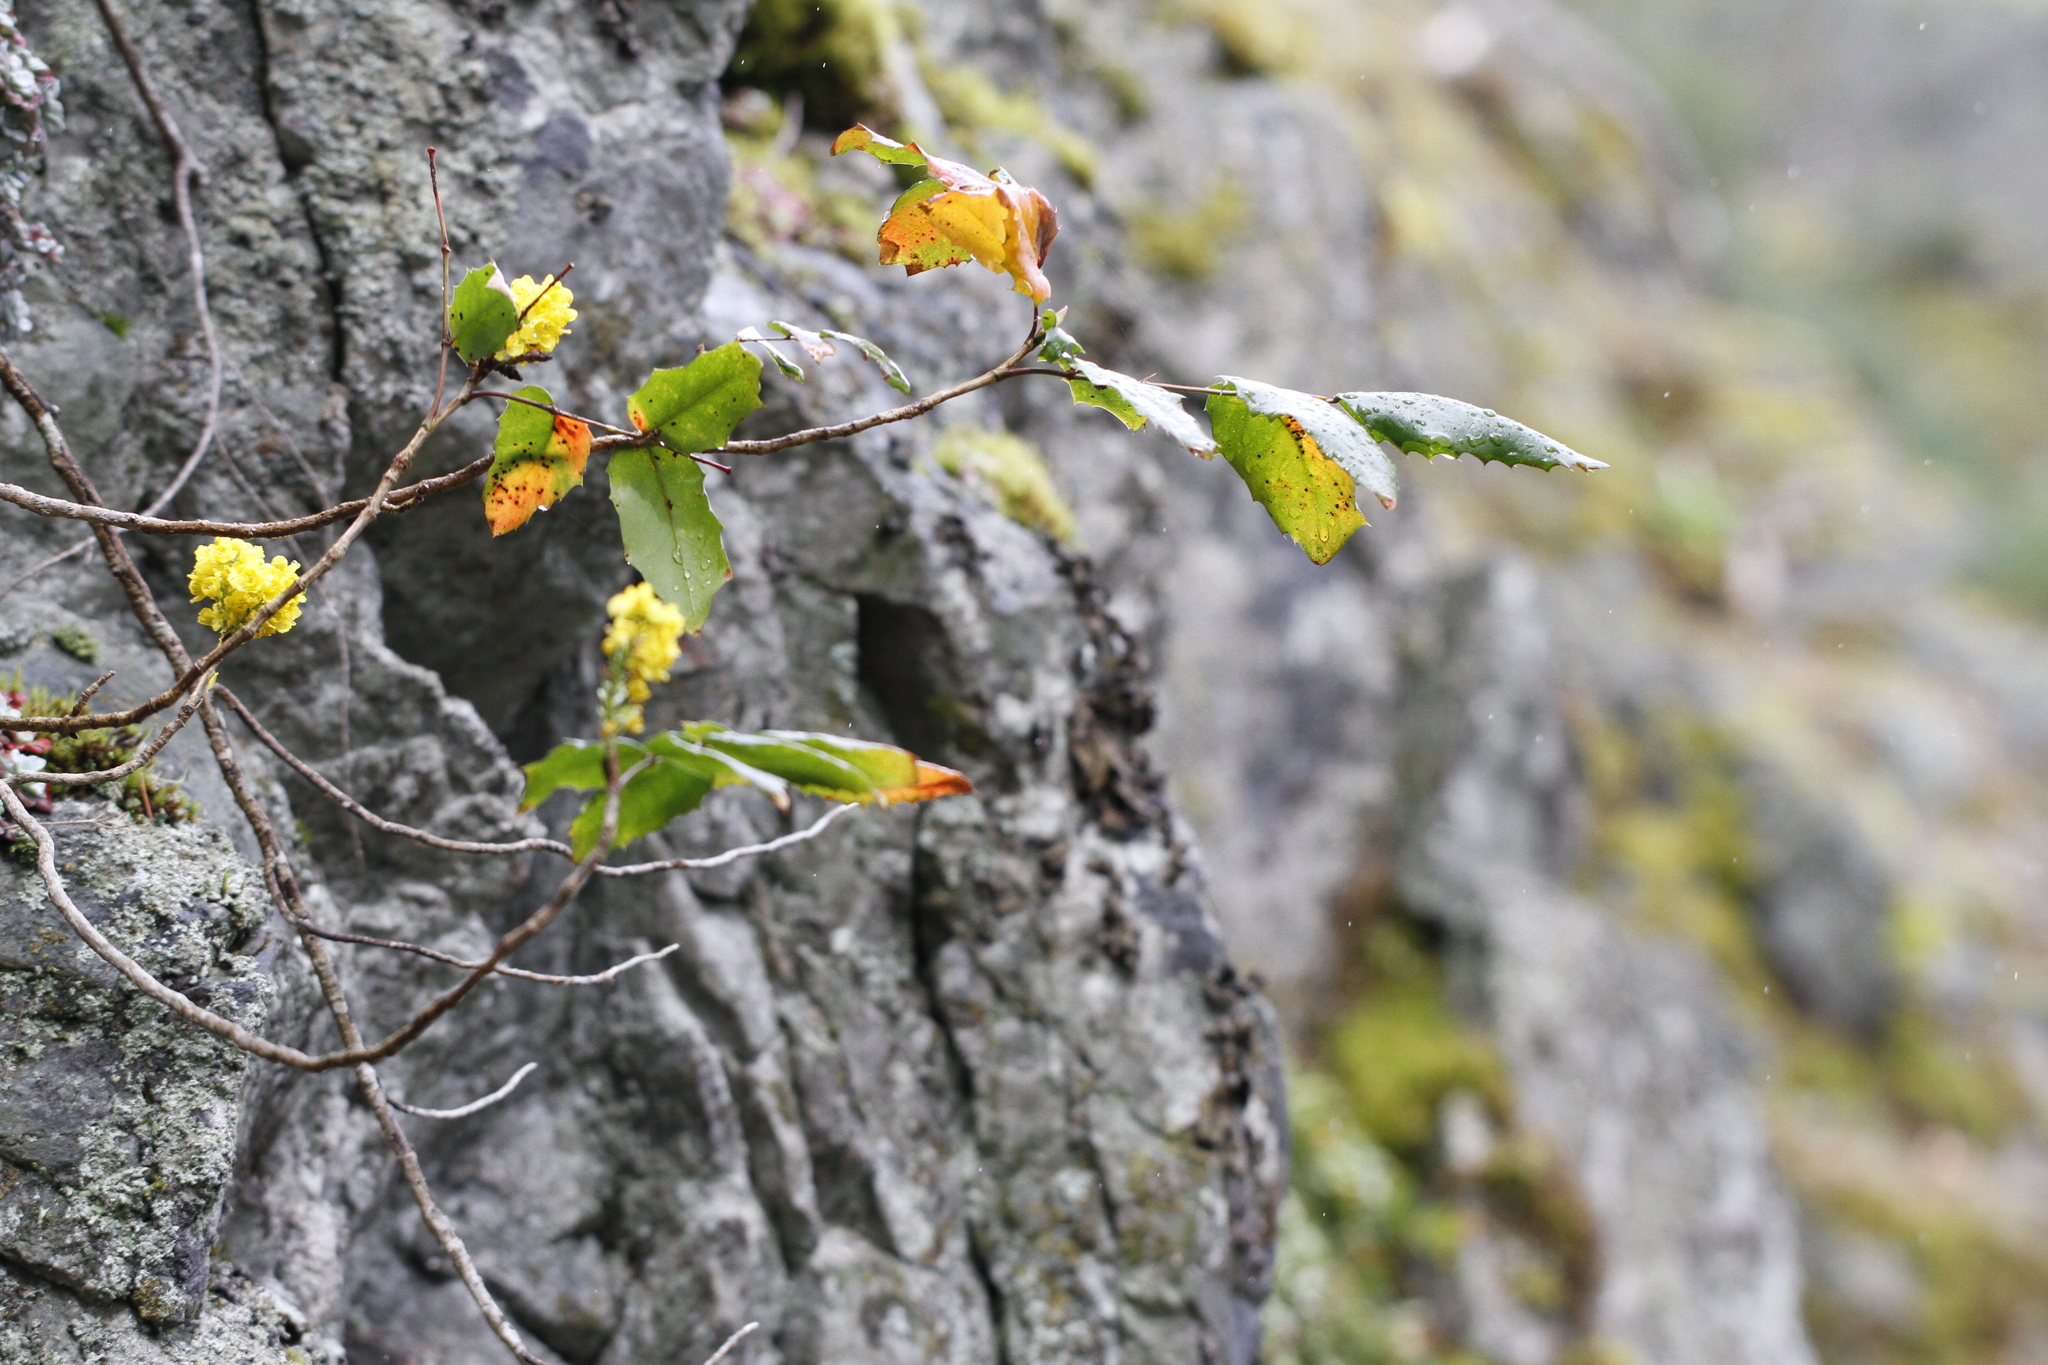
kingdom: Plantae
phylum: Tracheophyta
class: Magnoliopsida
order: Ranunculales
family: Berberidaceae
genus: Mahonia
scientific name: Mahonia aquifolium
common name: Oregon-grape
